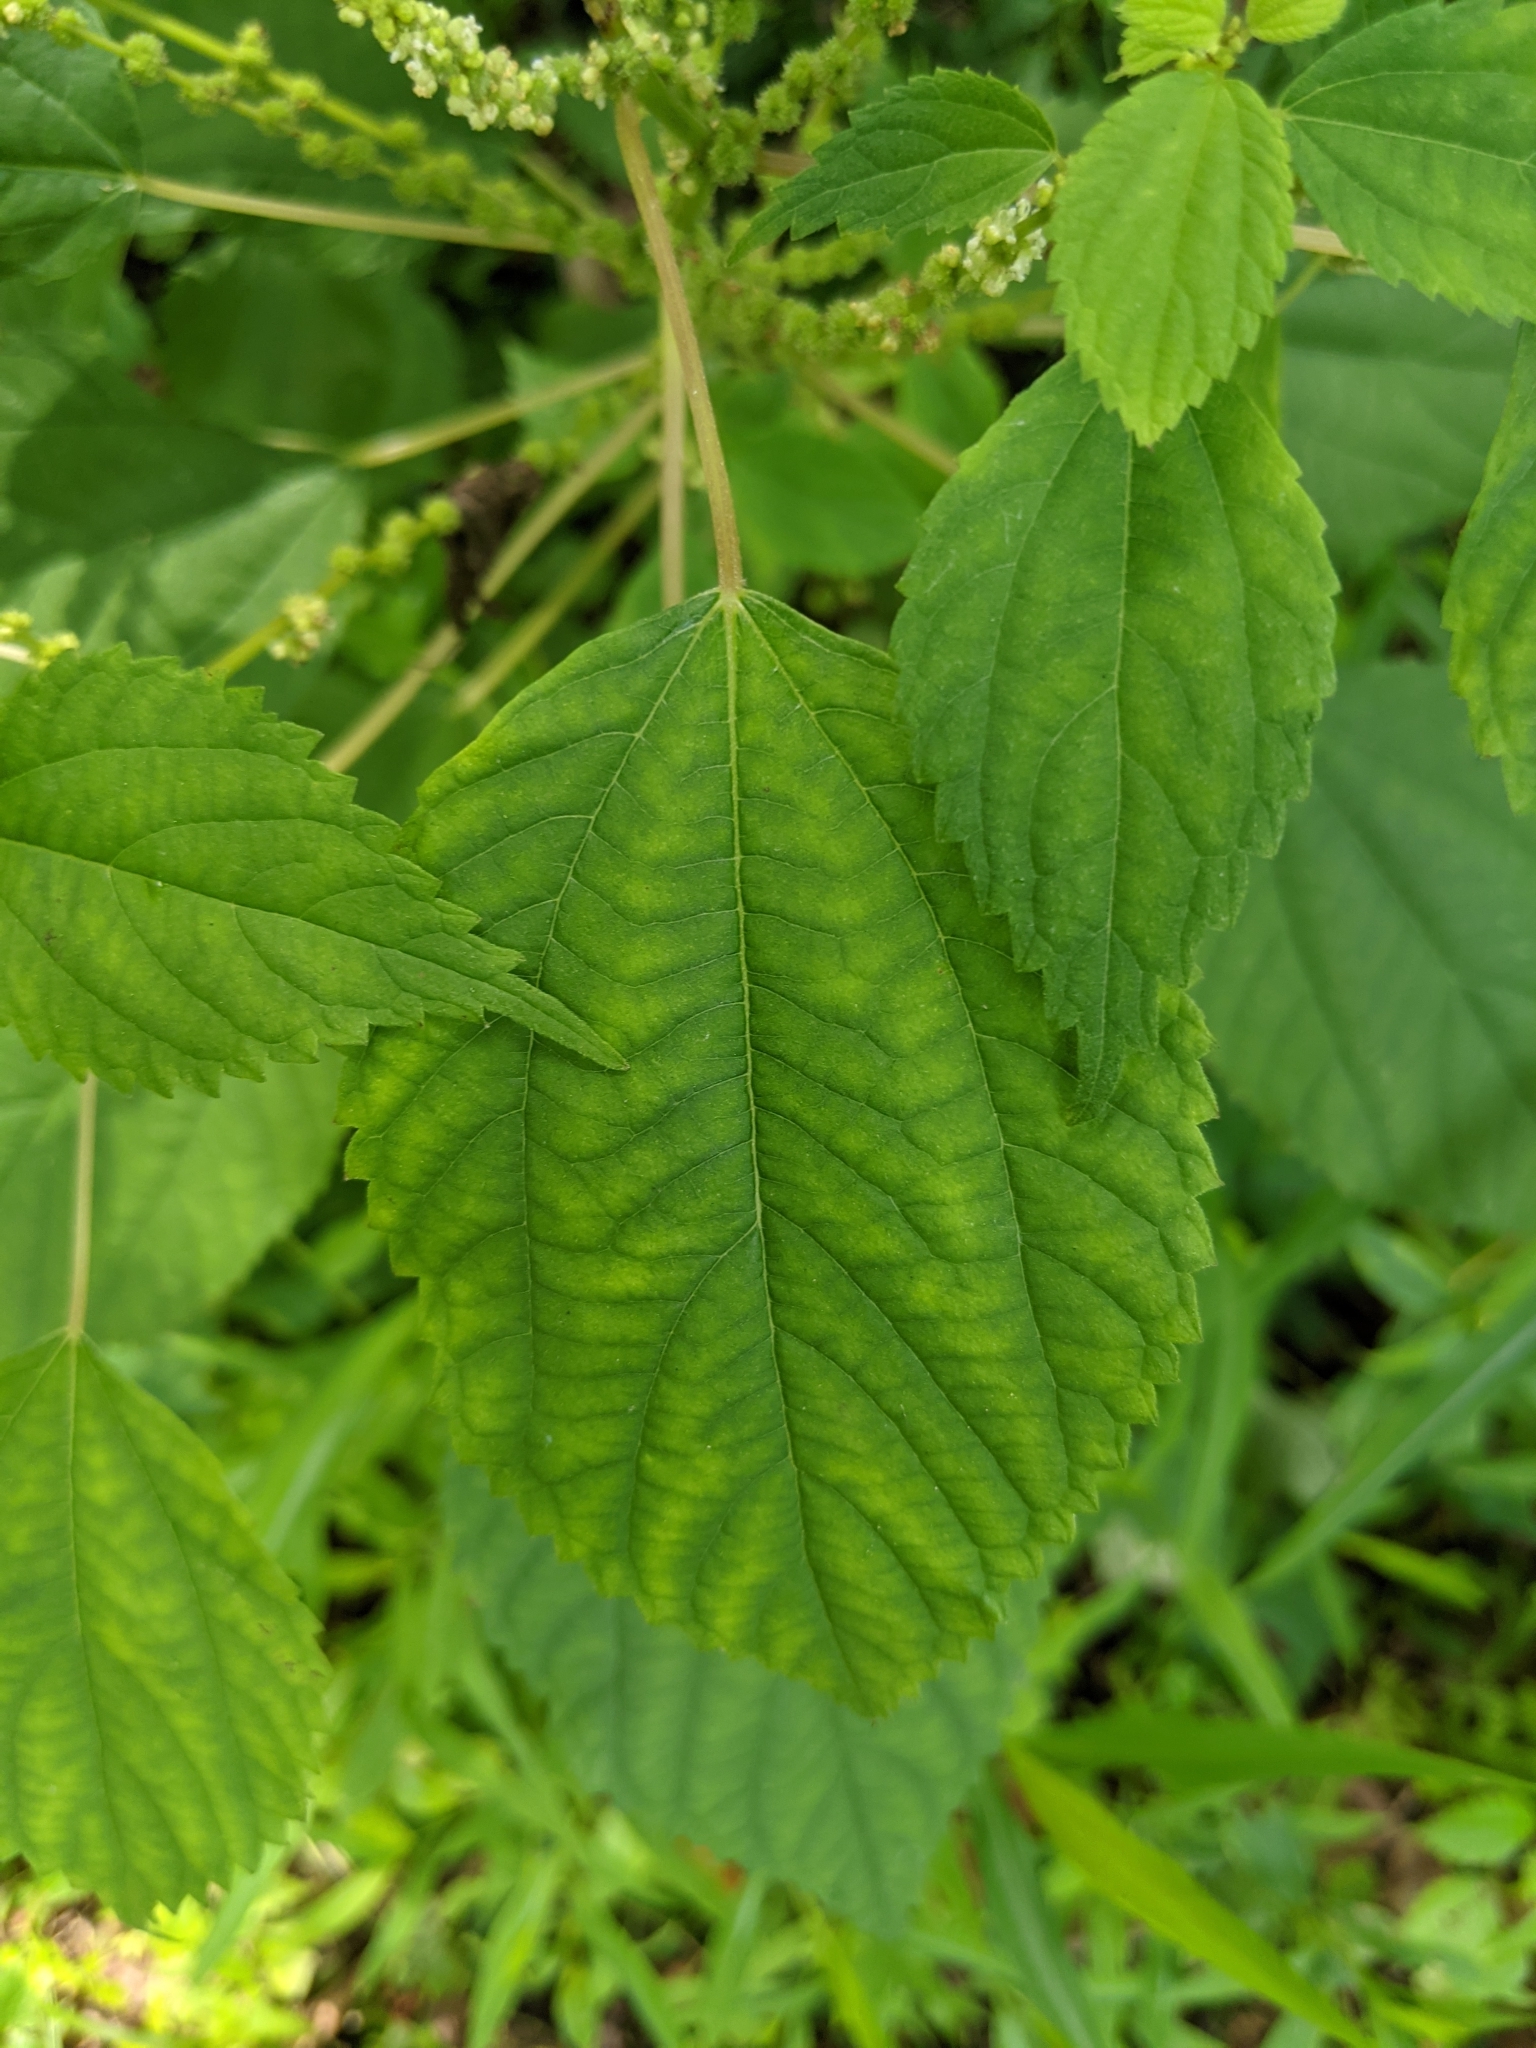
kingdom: Plantae
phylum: Tracheophyta
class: Magnoliopsida
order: Rosales
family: Urticaceae
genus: Boehmeria
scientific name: Boehmeria cylindrica
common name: Bog-hemp
